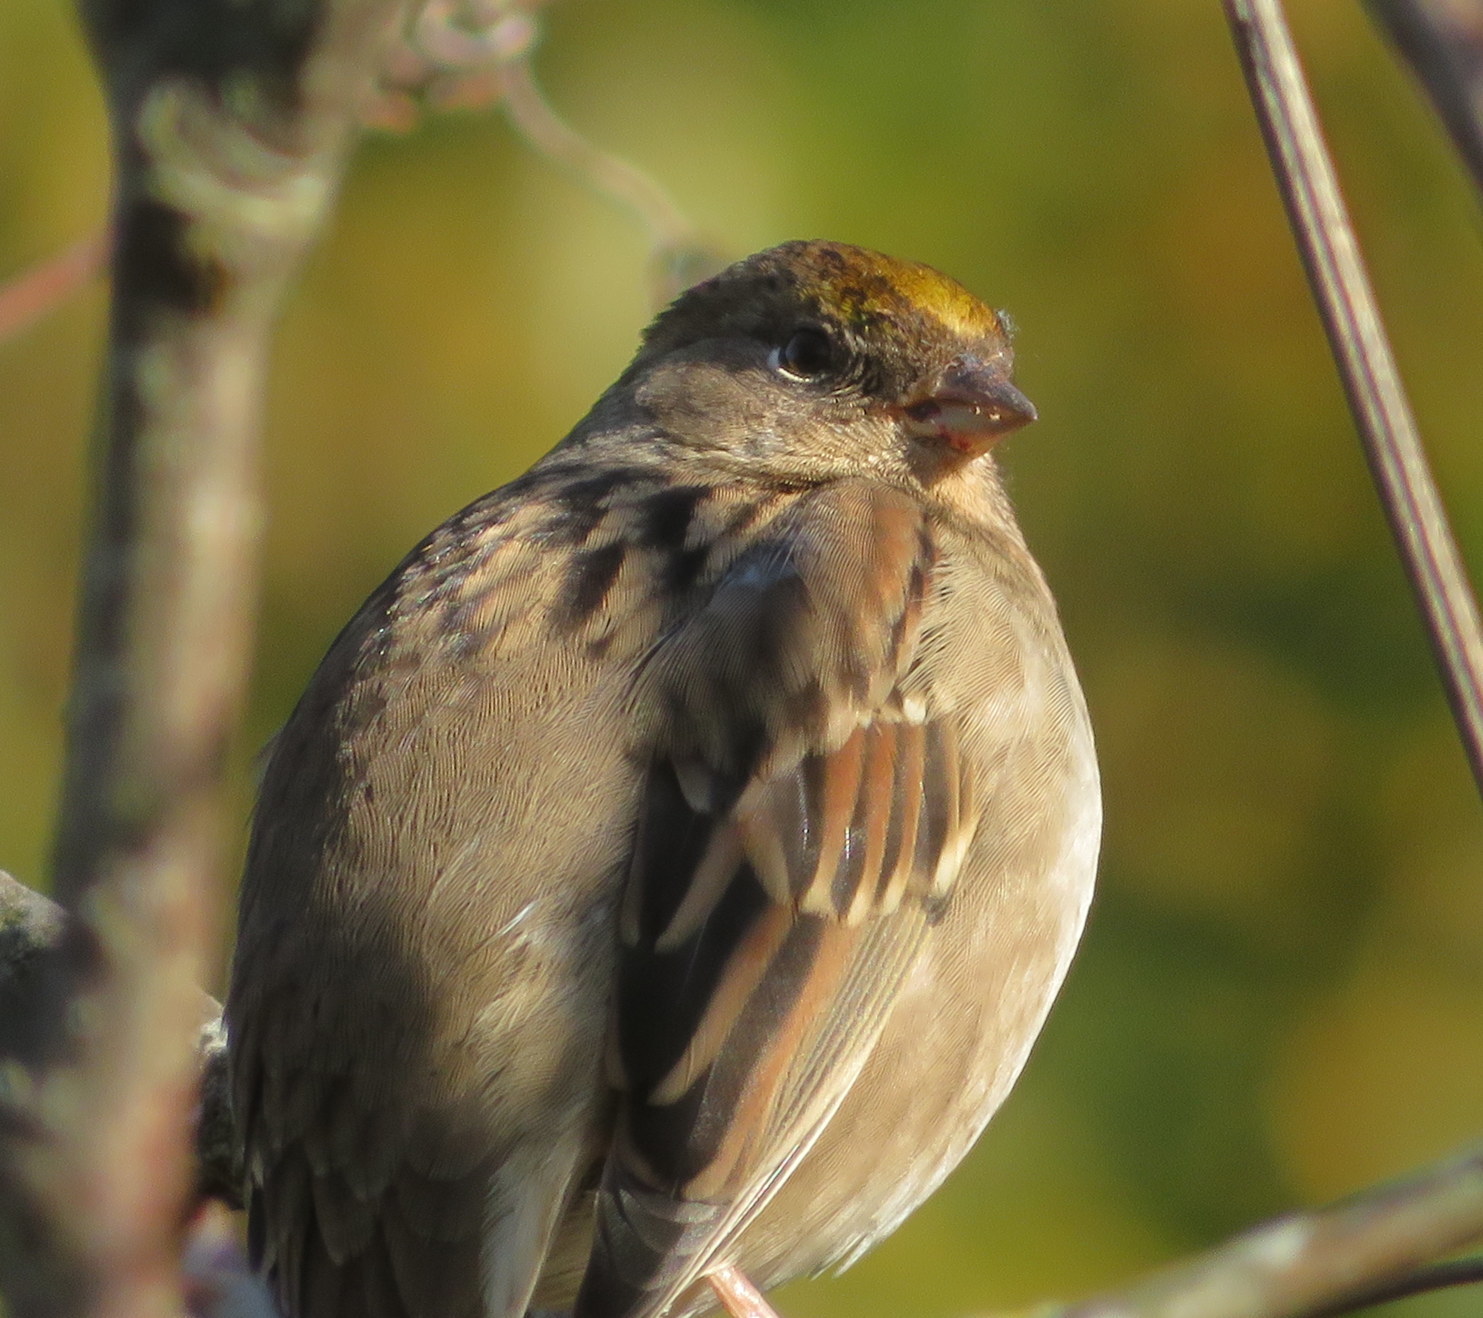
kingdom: Animalia
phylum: Chordata
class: Aves
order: Passeriformes
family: Passerellidae
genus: Zonotrichia
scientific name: Zonotrichia atricapilla
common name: Golden-crowned sparrow
